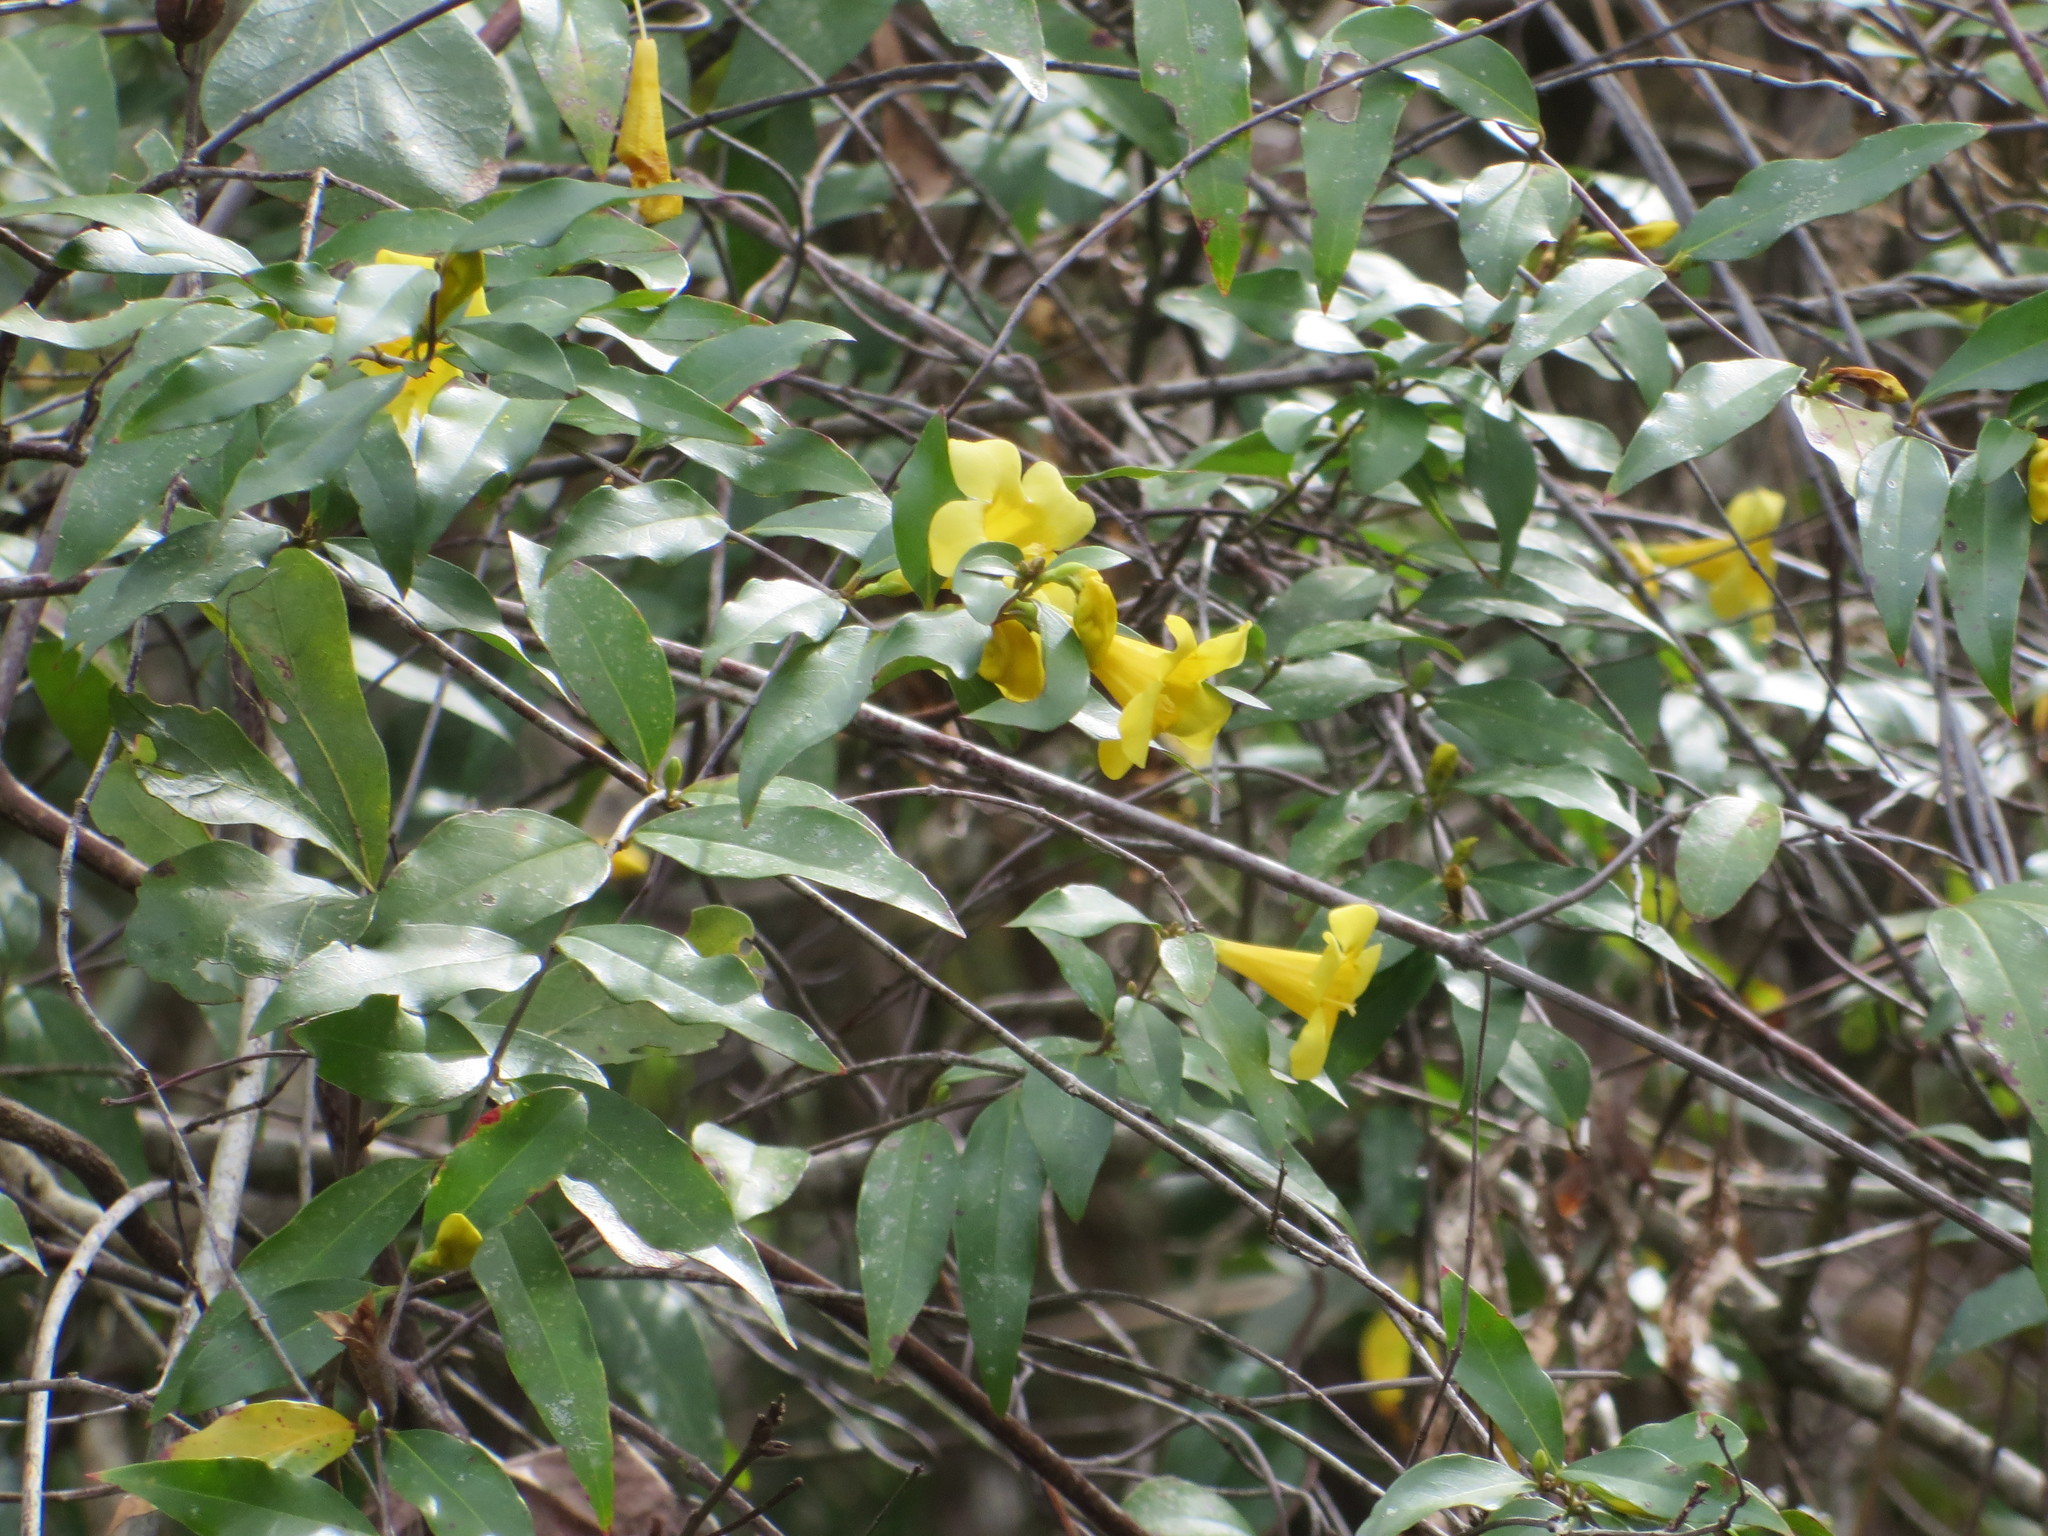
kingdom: Plantae
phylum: Tracheophyta
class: Magnoliopsida
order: Gentianales
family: Gelsemiaceae
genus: Gelsemium
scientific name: Gelsemium sempervirens
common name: Carolina-jasmine
